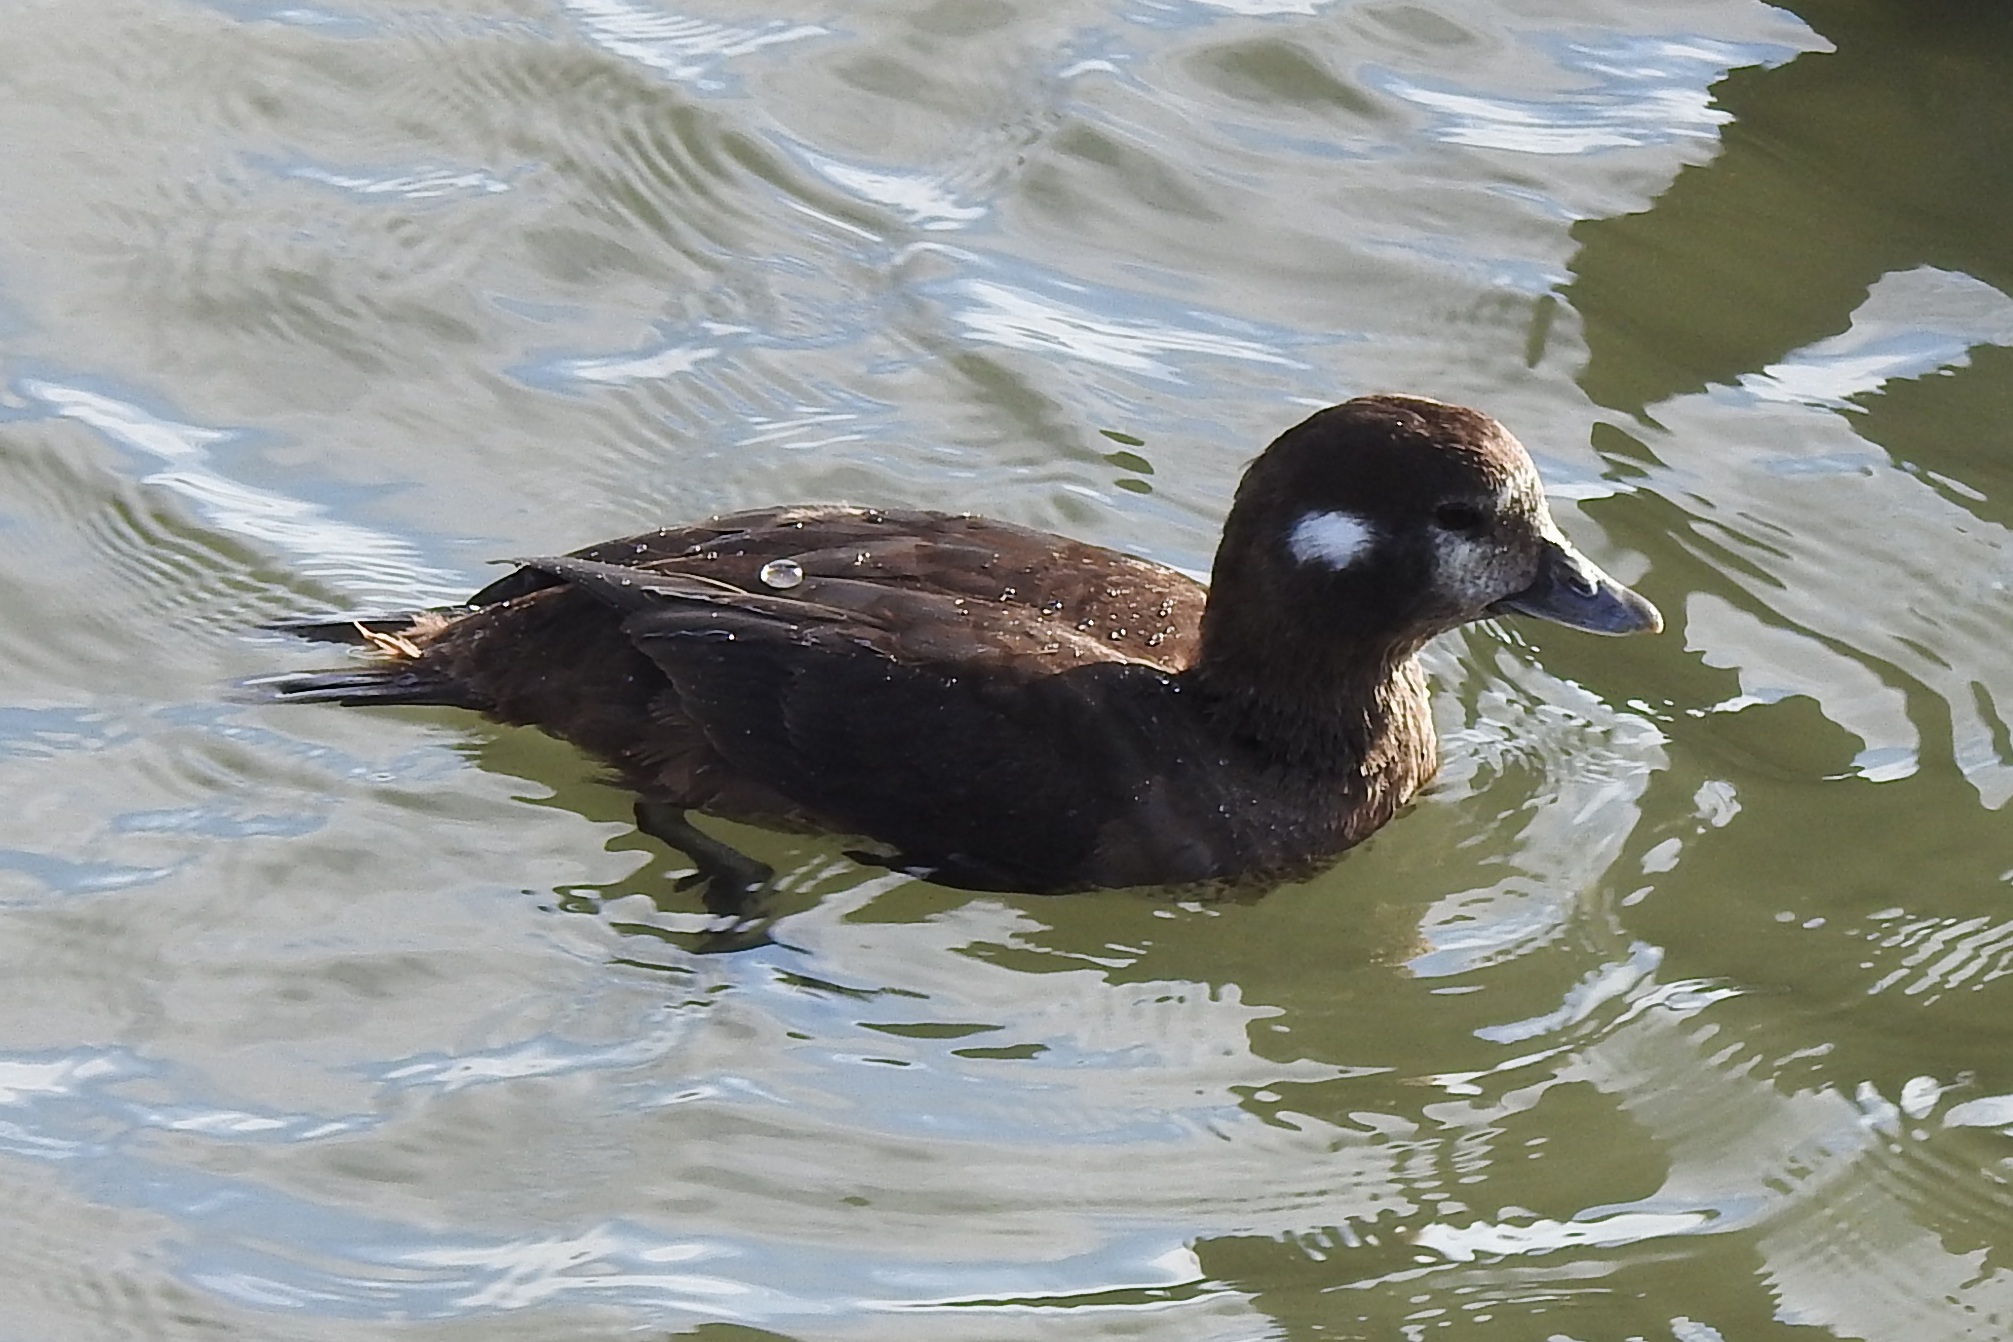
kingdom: Animalia
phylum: Chordata
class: Aves
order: Anseriformes
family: Anatidae
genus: Histrionicus
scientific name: Histrionicus histrionicus
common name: Harlequin duck
